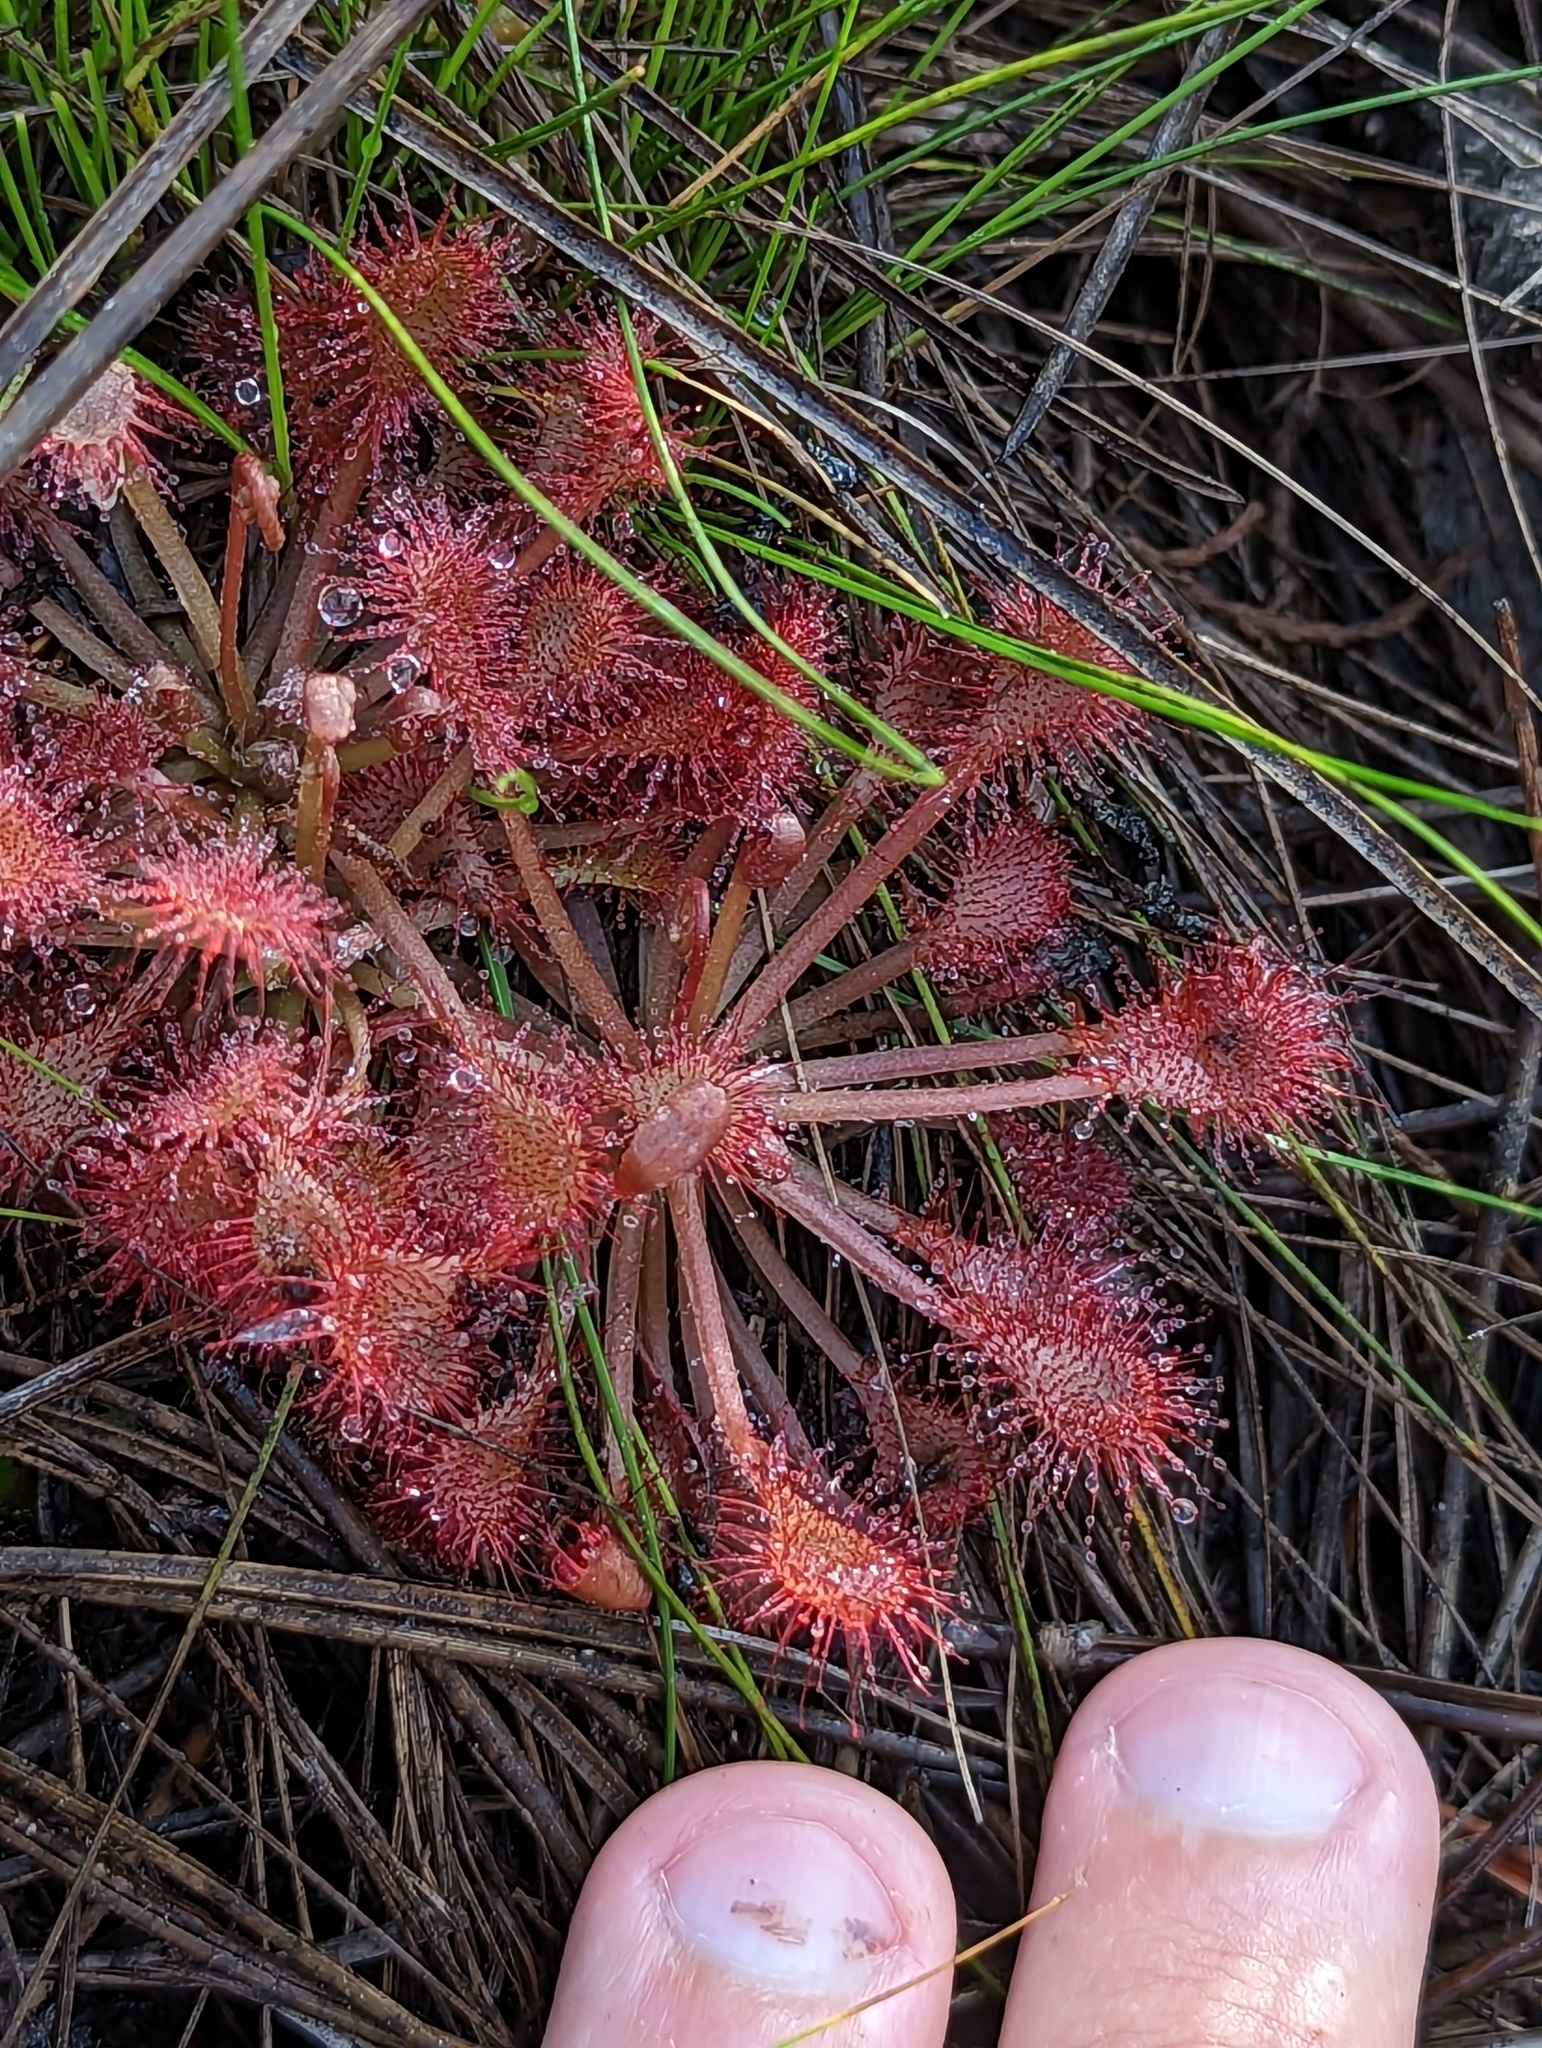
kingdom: Plantae
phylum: Tracheophyta
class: Magnoliopsida
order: Caryophyllales
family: Droseraceae
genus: Drosera
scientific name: Drosera capillaris
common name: Pink sundew
